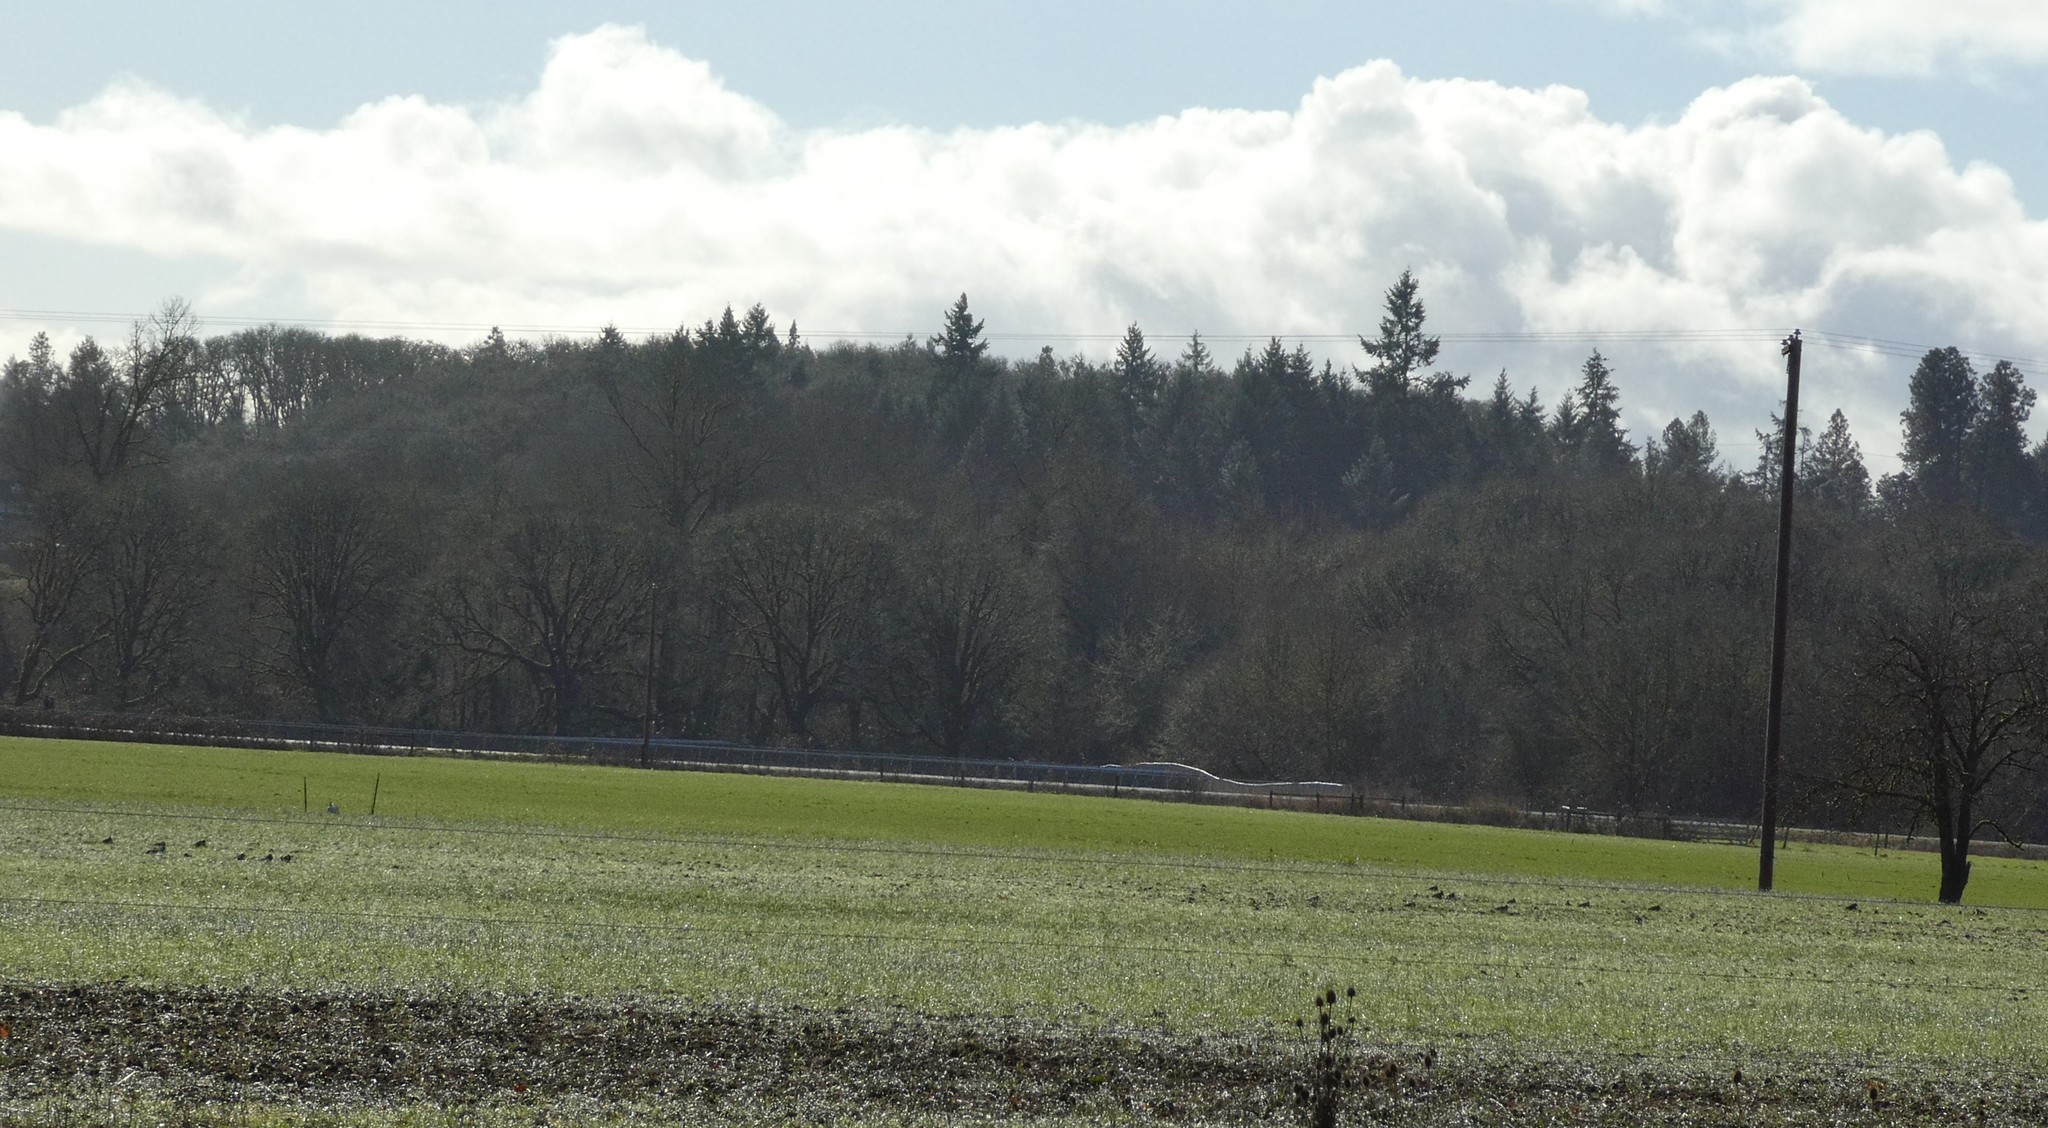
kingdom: Animalia
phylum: Chordata
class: Aves
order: Charadriiformes
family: Scolopacidae
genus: Gallinago
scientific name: Gallinago delicata
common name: Wilson's snipe
